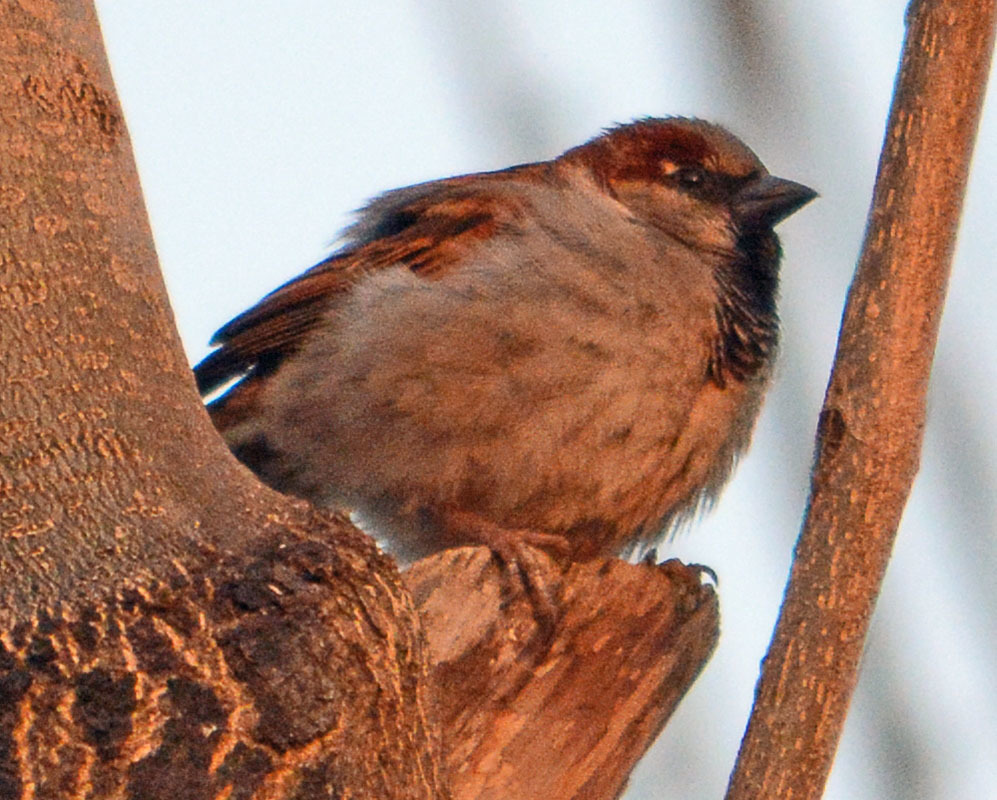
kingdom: Animalia
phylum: Chordata
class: Aves
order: Passeriformes
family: Passeridae
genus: Passer
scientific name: Passer domesticus
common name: House sparrow
